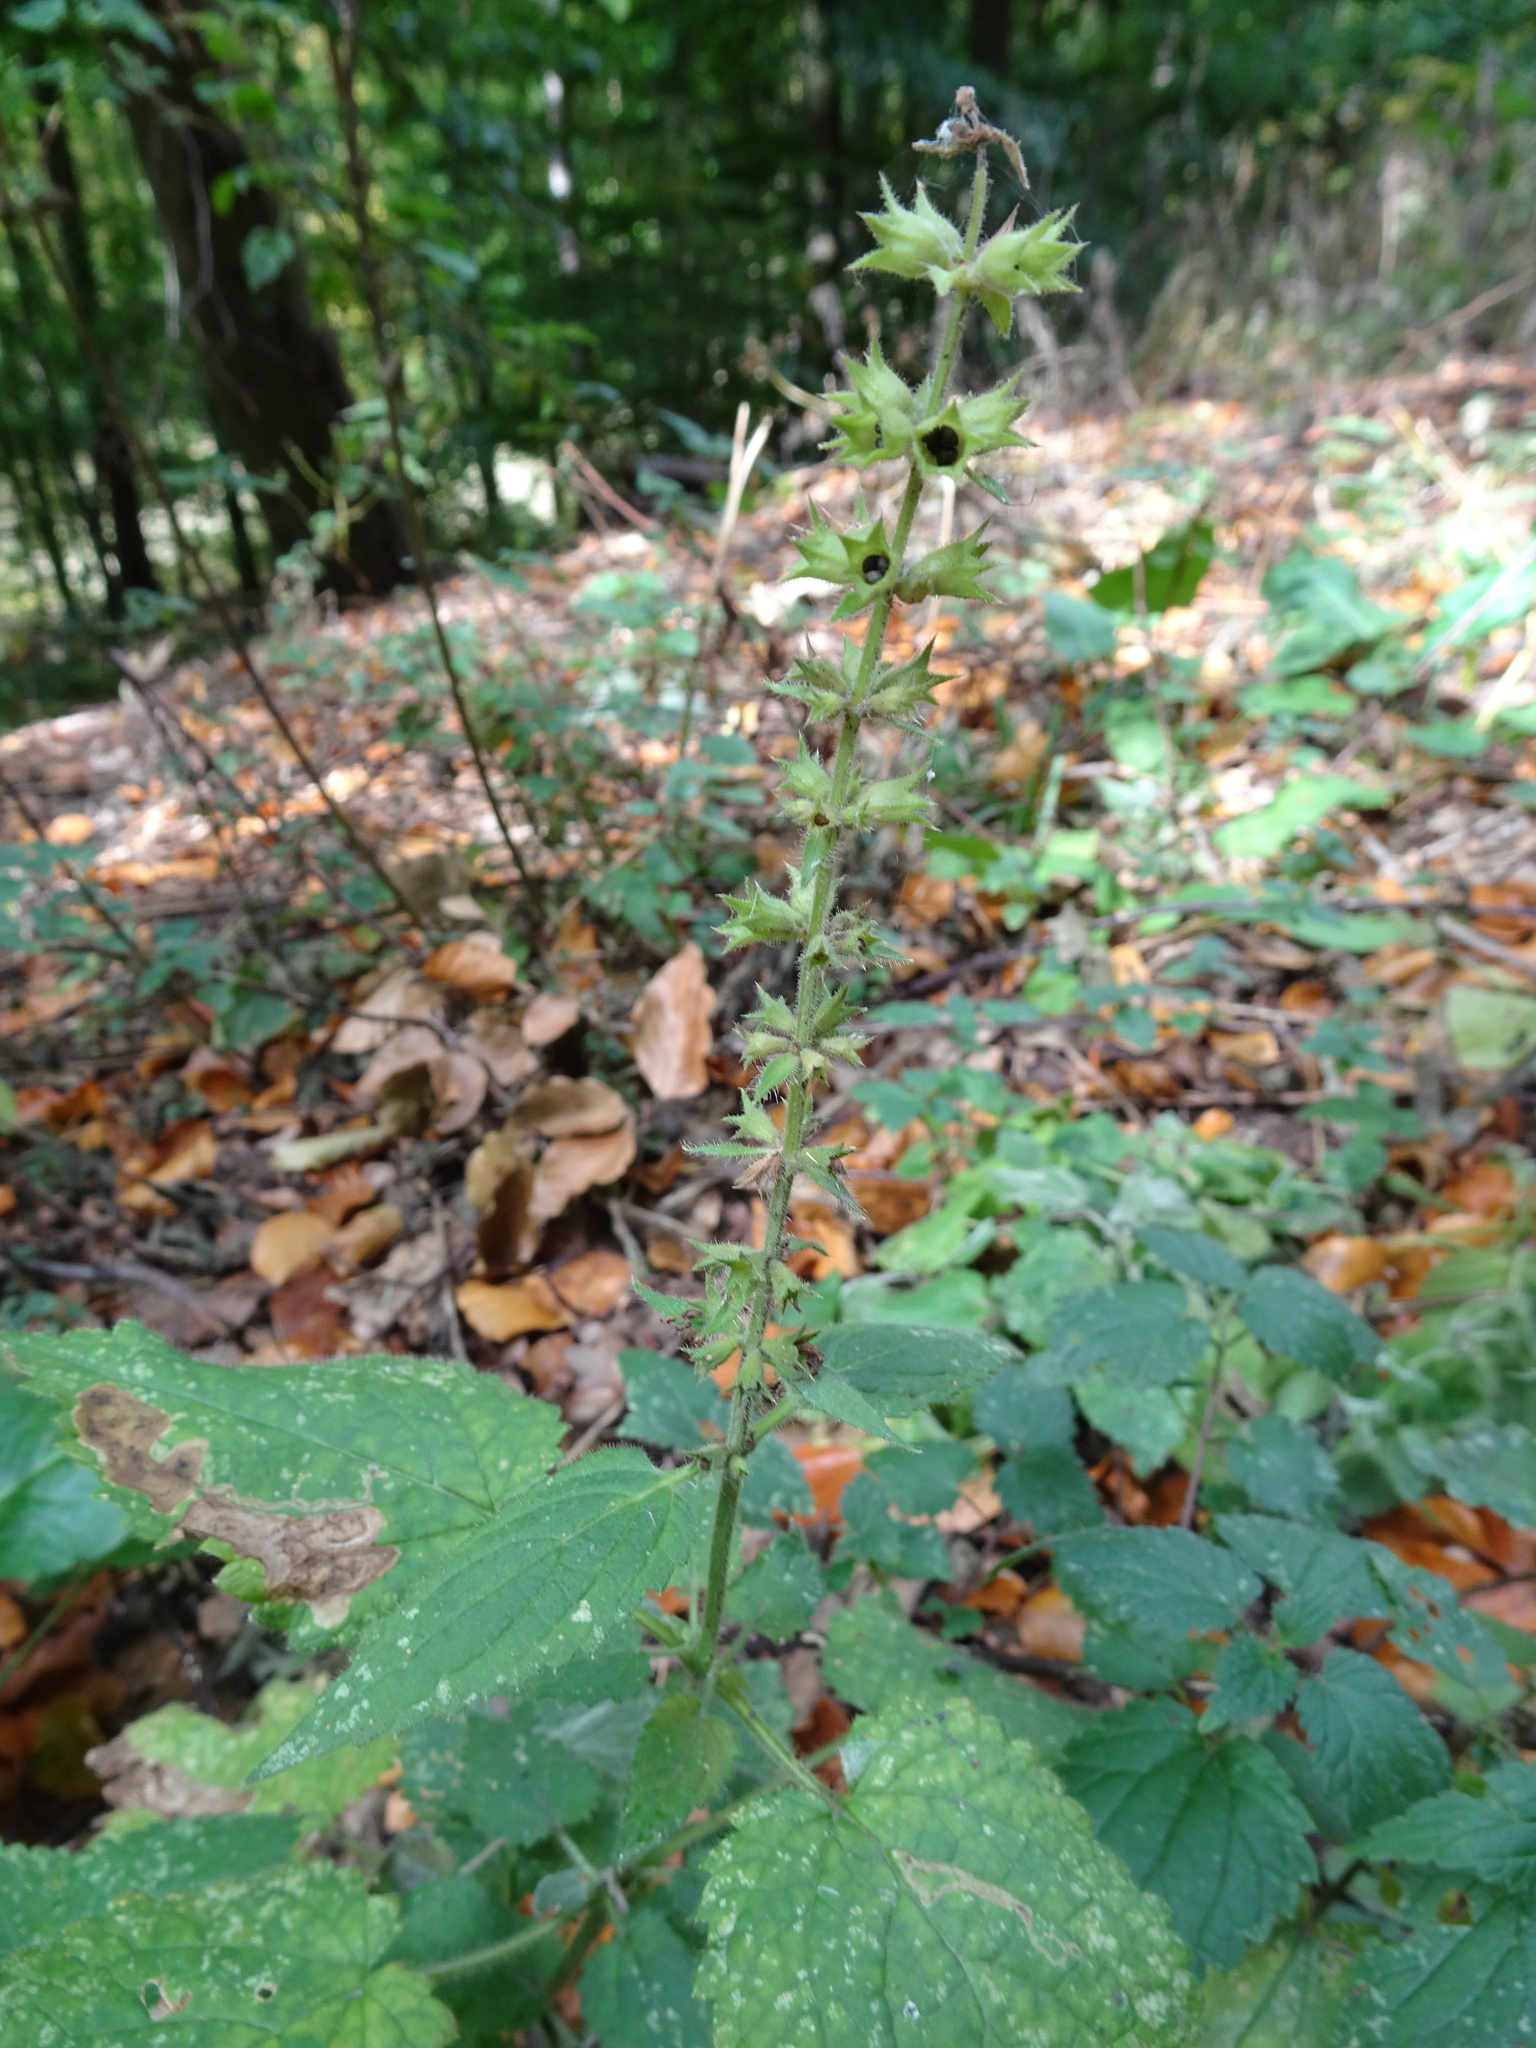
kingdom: Plantae
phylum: Tracheophyta
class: Magnoliopsida
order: Lamiales
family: Lamiaceae
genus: Stachys
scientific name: Stachys sylvatica
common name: Hedge woundwort
